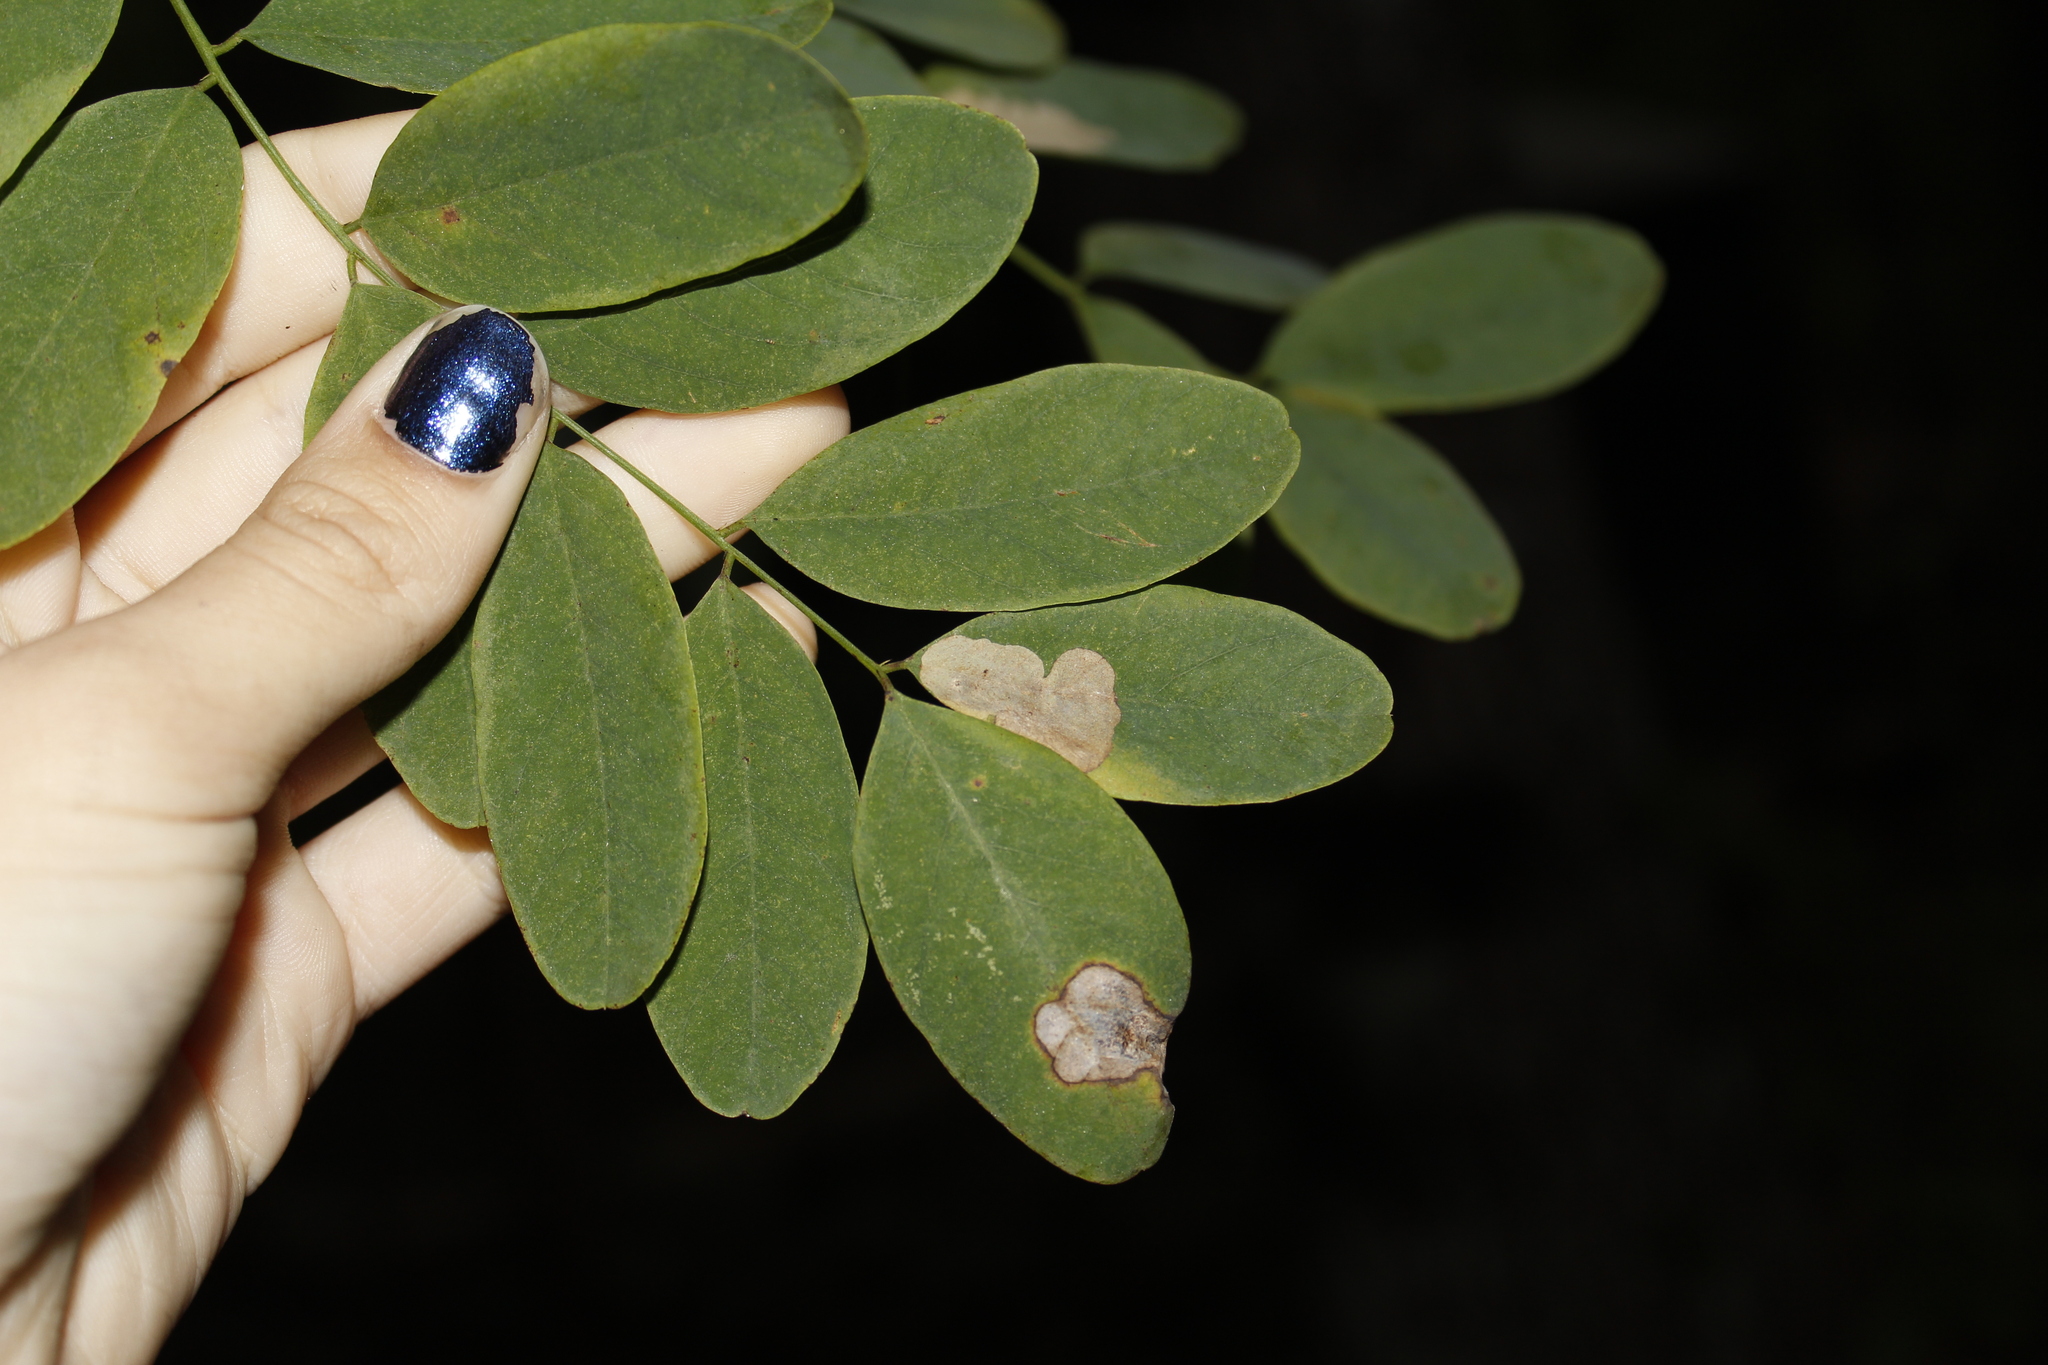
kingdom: Animalia
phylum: Arthropoda
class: Insecta
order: Lepidoptera
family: Gracillariidae
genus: Chrysaster
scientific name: Chrysaster ostensackenella
